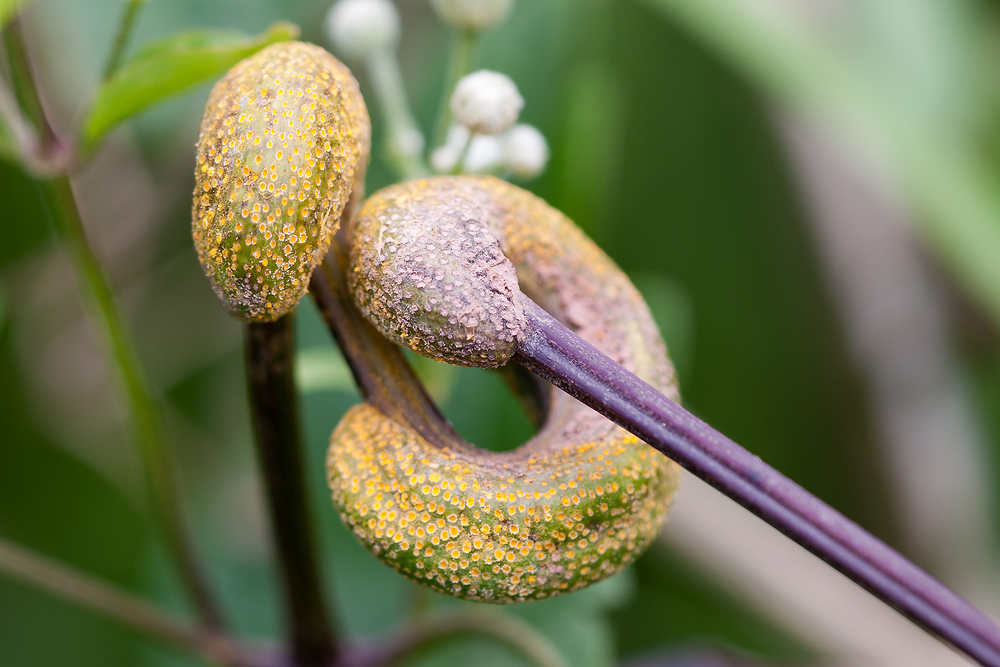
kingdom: Fungi
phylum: Basidiomycota
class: Pucciniomycetes
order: Pucciniales
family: Pucciniaceae
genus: Puccinia
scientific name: Puccinia clematidis
